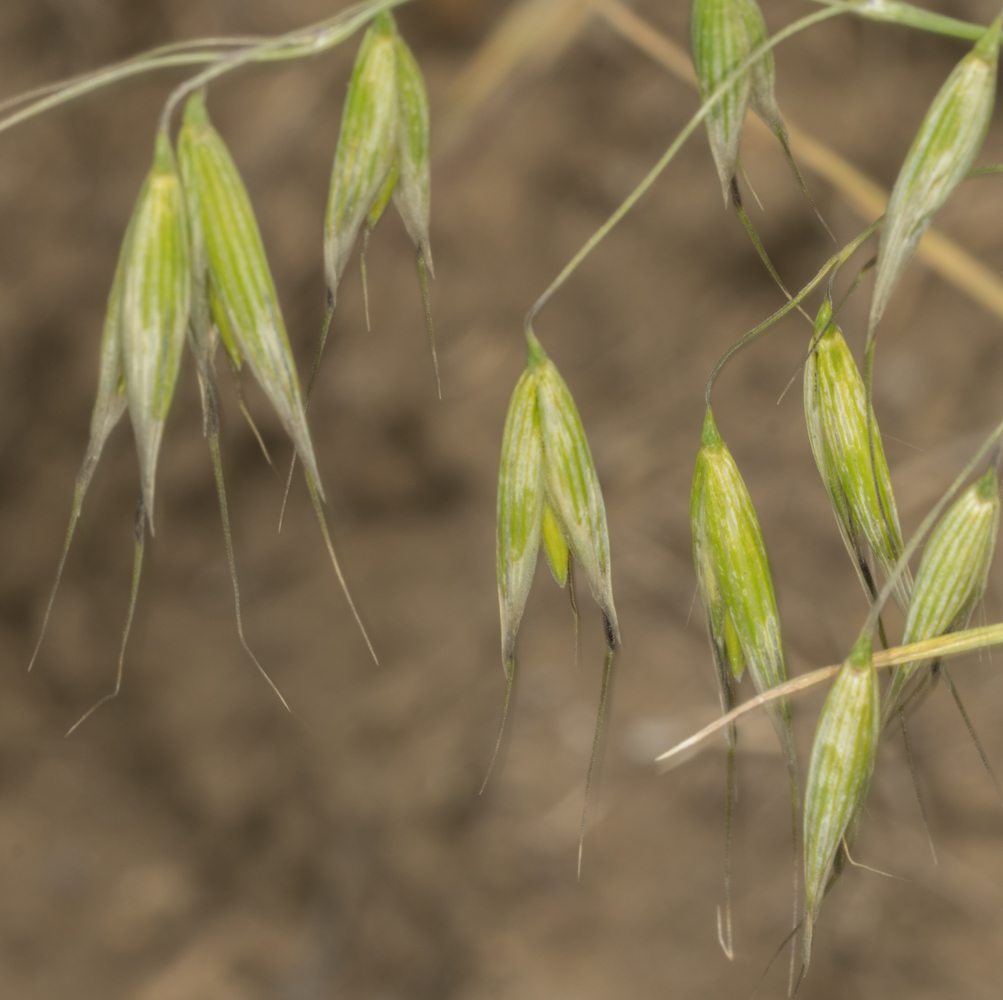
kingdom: Plantae
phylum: Tracheophyta
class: Liliopsida
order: Poales
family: Poaceae
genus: Avena
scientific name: Avena fatua
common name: Wild oat
